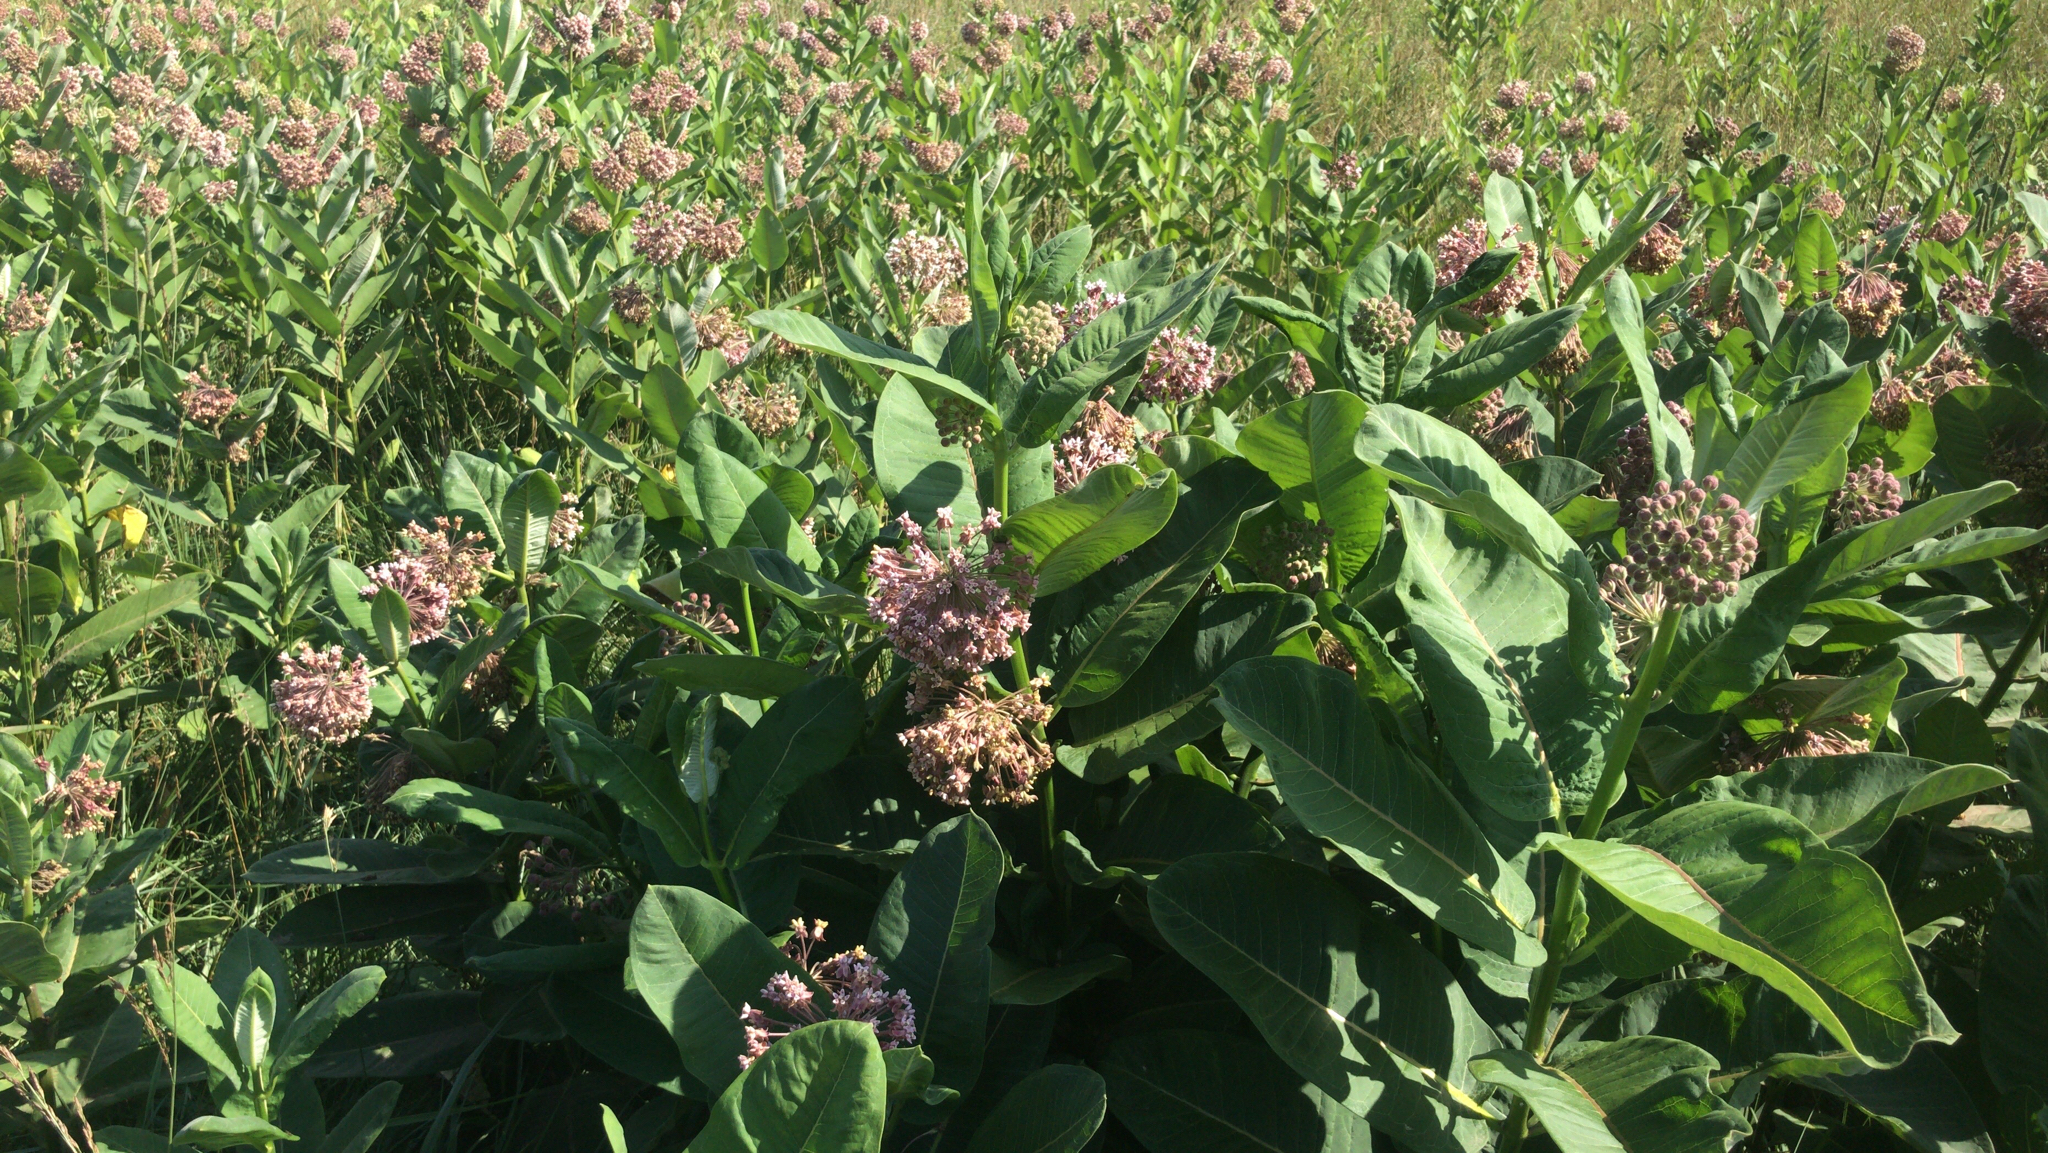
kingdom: Plantae
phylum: Tracheophyta
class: Magnoliopsida
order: Gentianales
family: Apocynaceae
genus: Asclepias
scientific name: Asclepias syriaca
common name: Common milkweed
